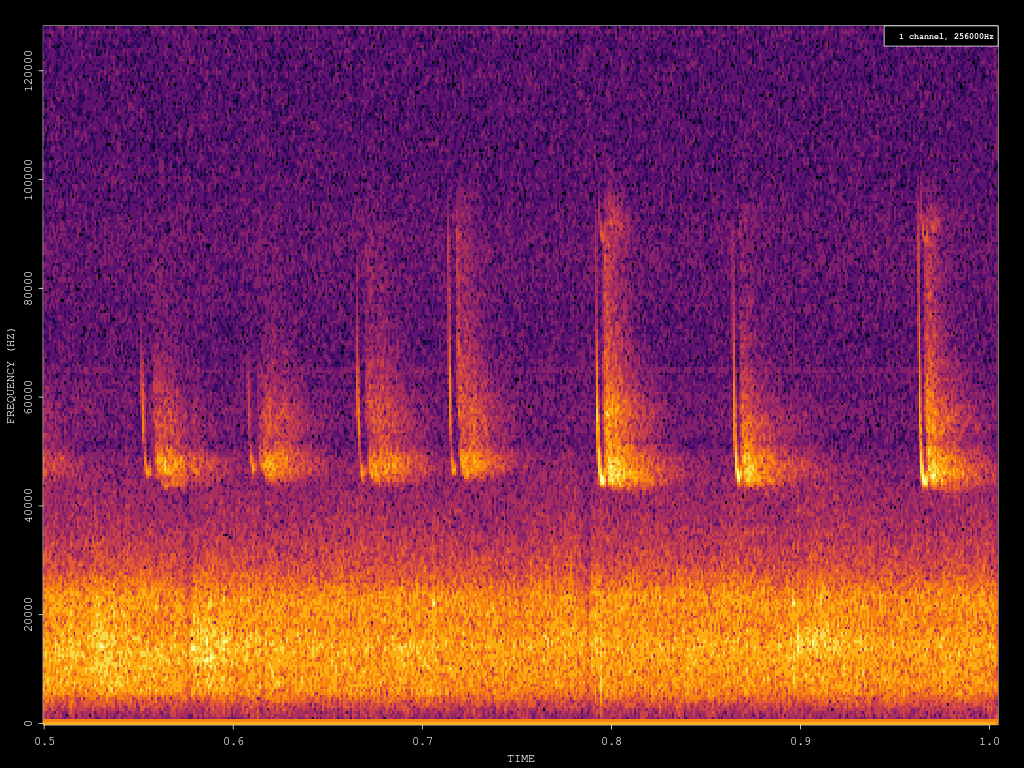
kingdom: Animalia
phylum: Chordata
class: Mammalia
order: Chiroptera
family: Vespertilionidae
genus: Pipistrellus
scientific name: Pipistrellus pipistrellus
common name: Common pipistrelle
